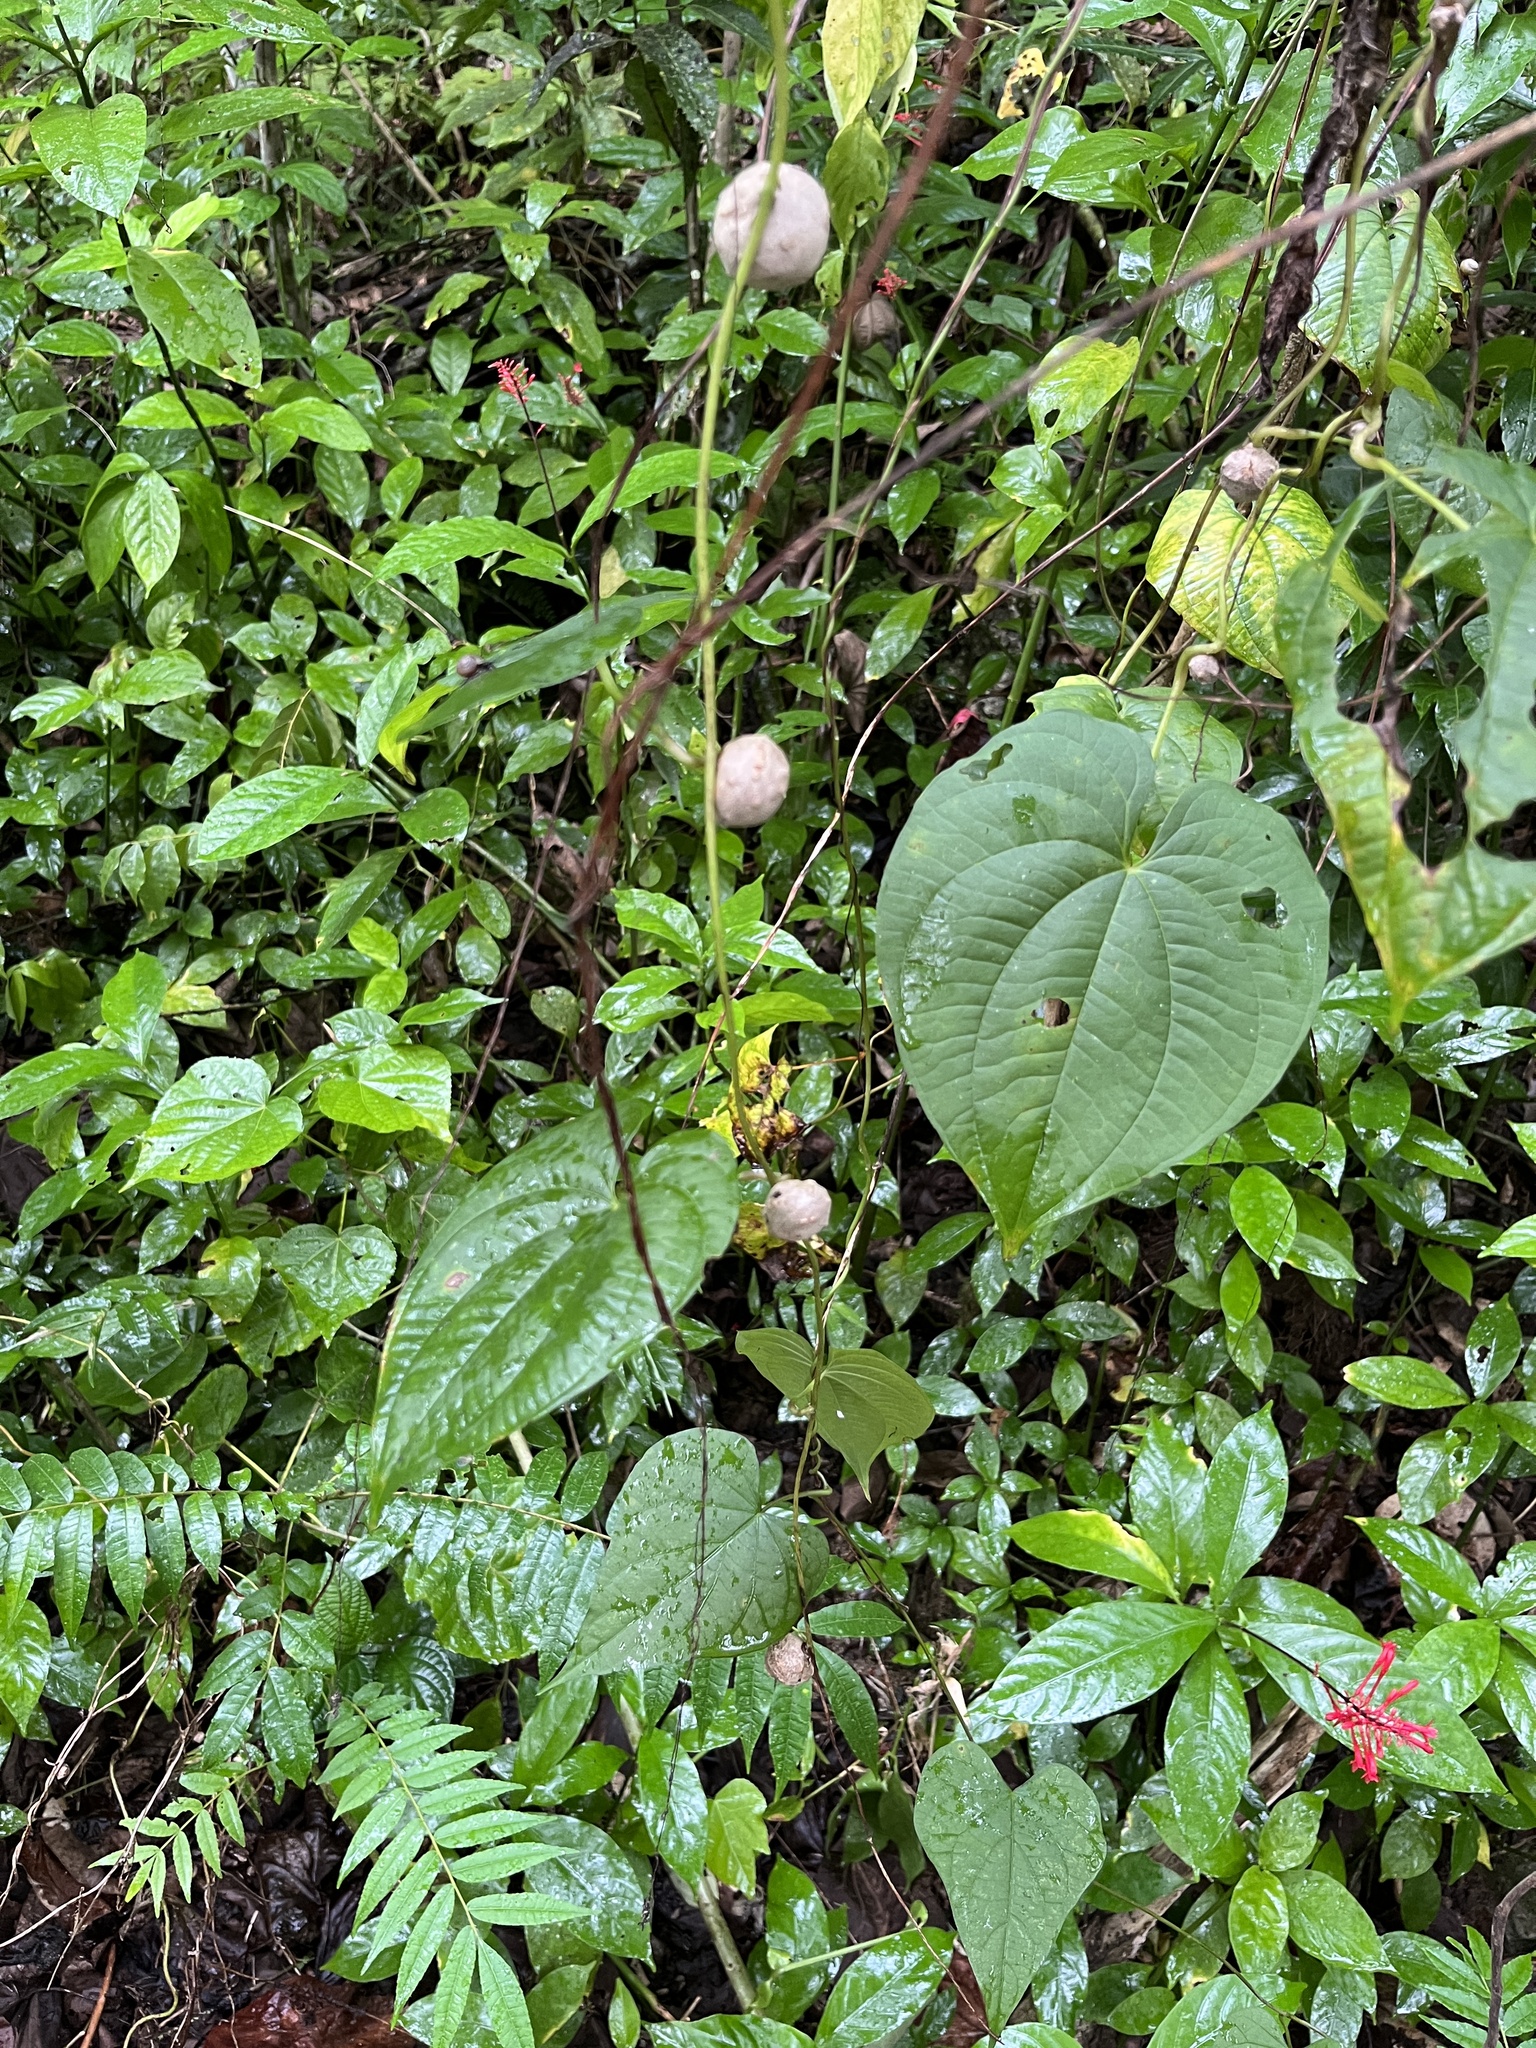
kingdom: Plantae
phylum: Tracheophyta
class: Liliopsida
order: Dioscoreales
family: Dioscoreaceae
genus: Dioscorea
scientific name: Dioscorea bulbifera
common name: Air yam
